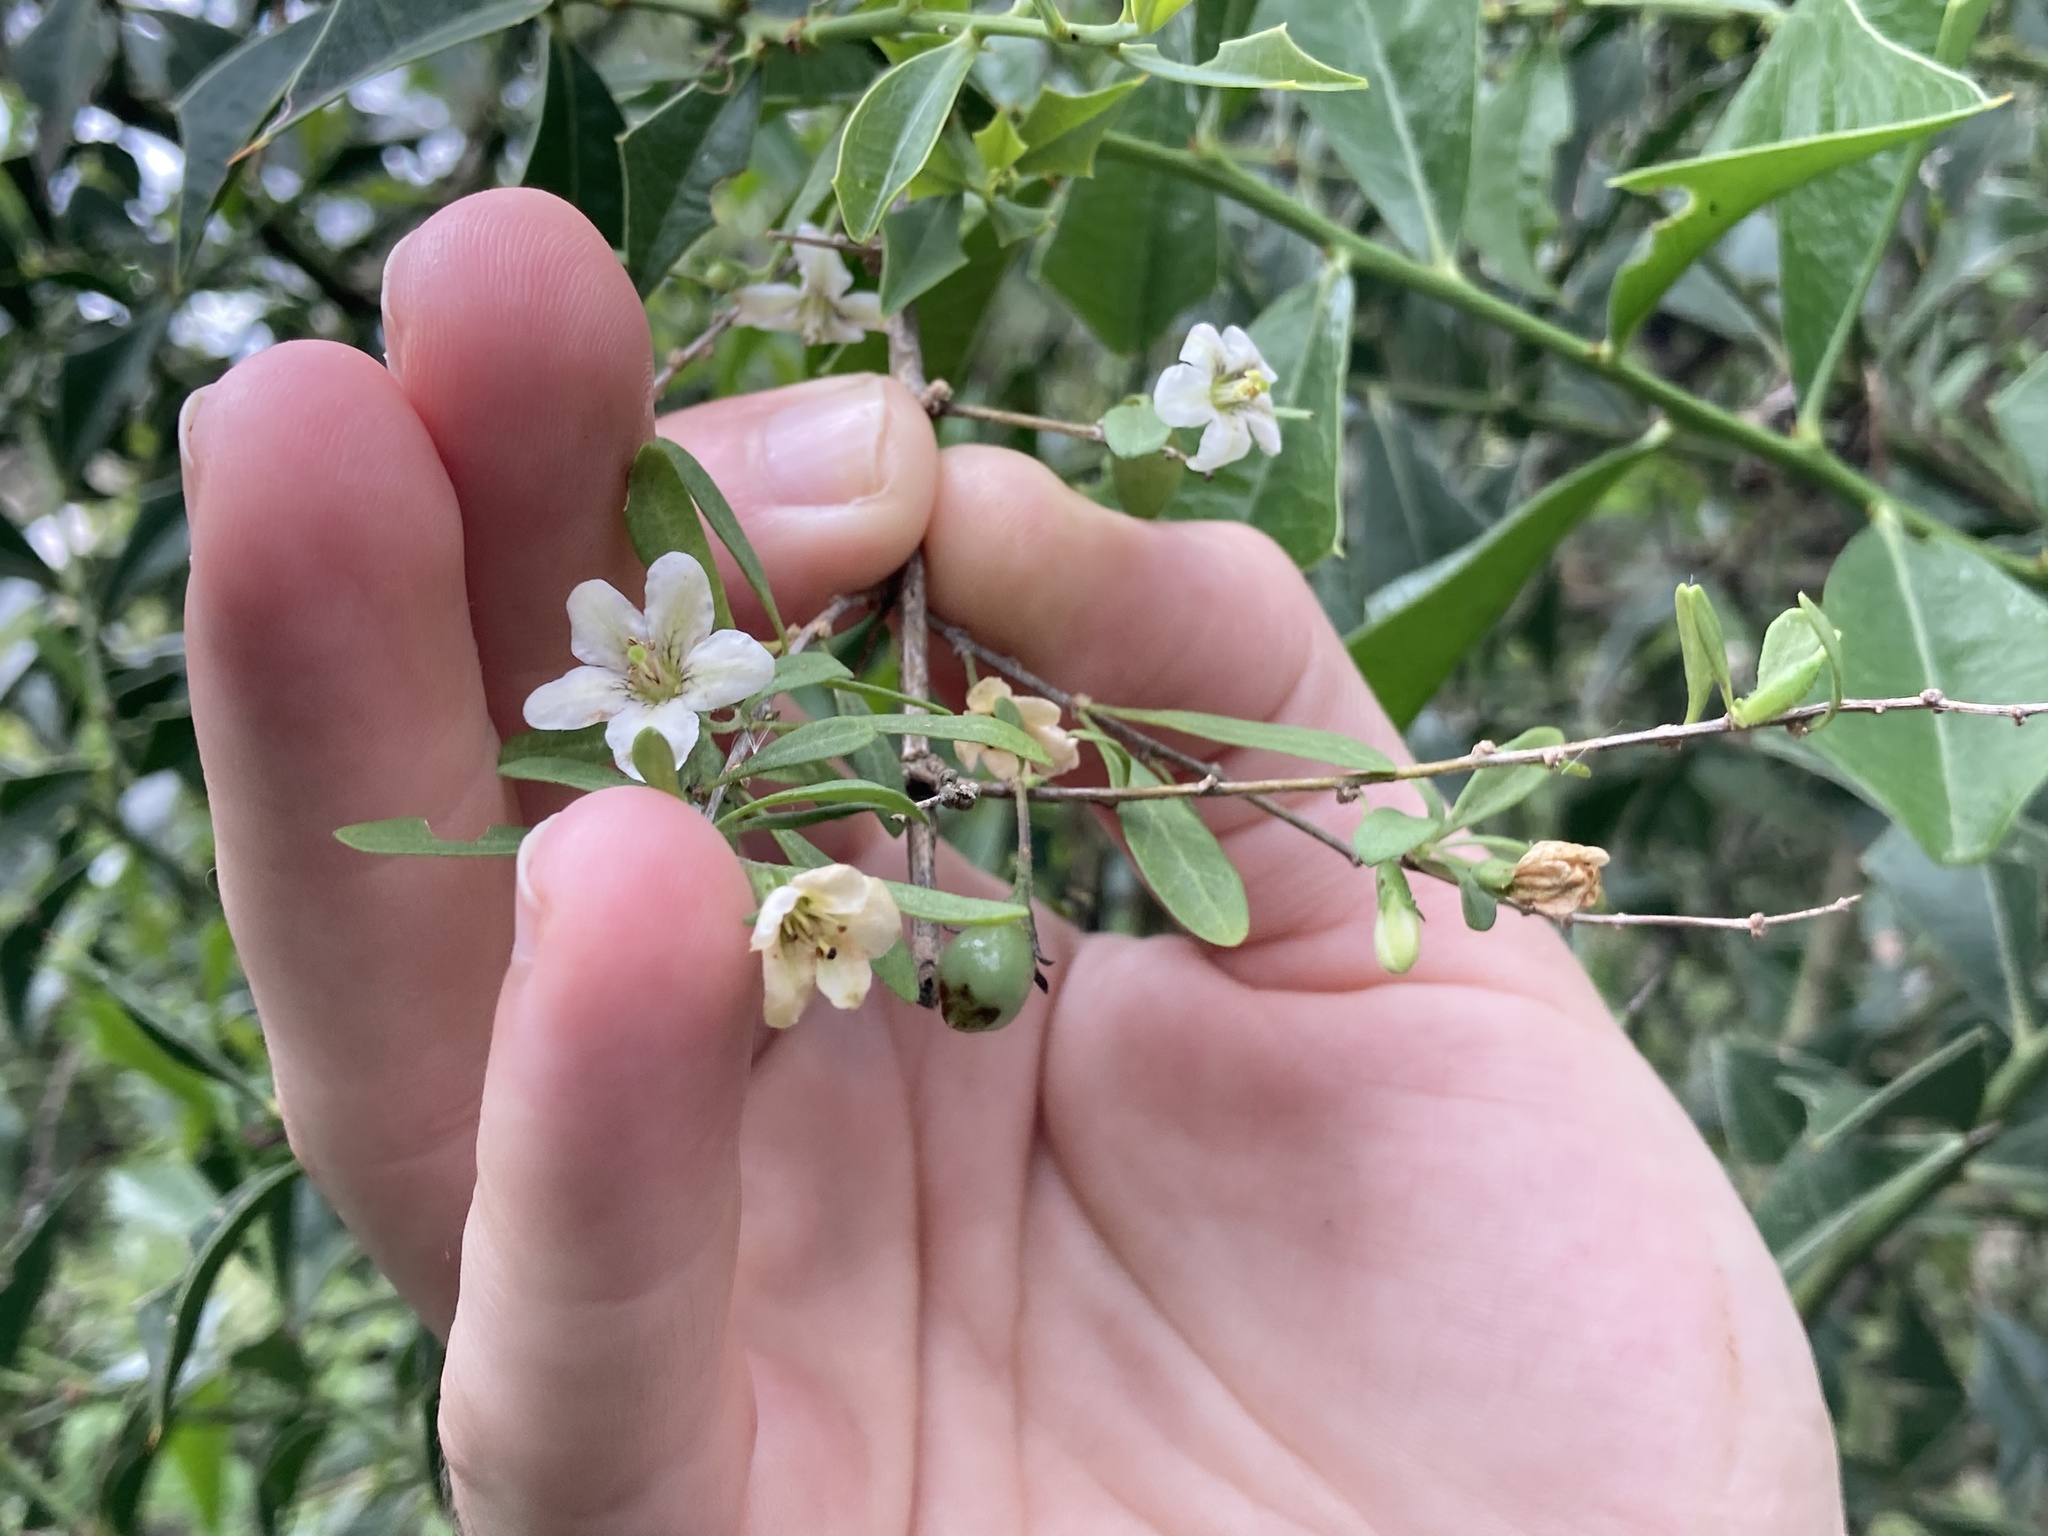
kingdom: Plantae
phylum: Tracheophyta
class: Magnoliopsida
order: Solanales
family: Solanaceae
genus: Lycium
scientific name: Lycium ciliatum
